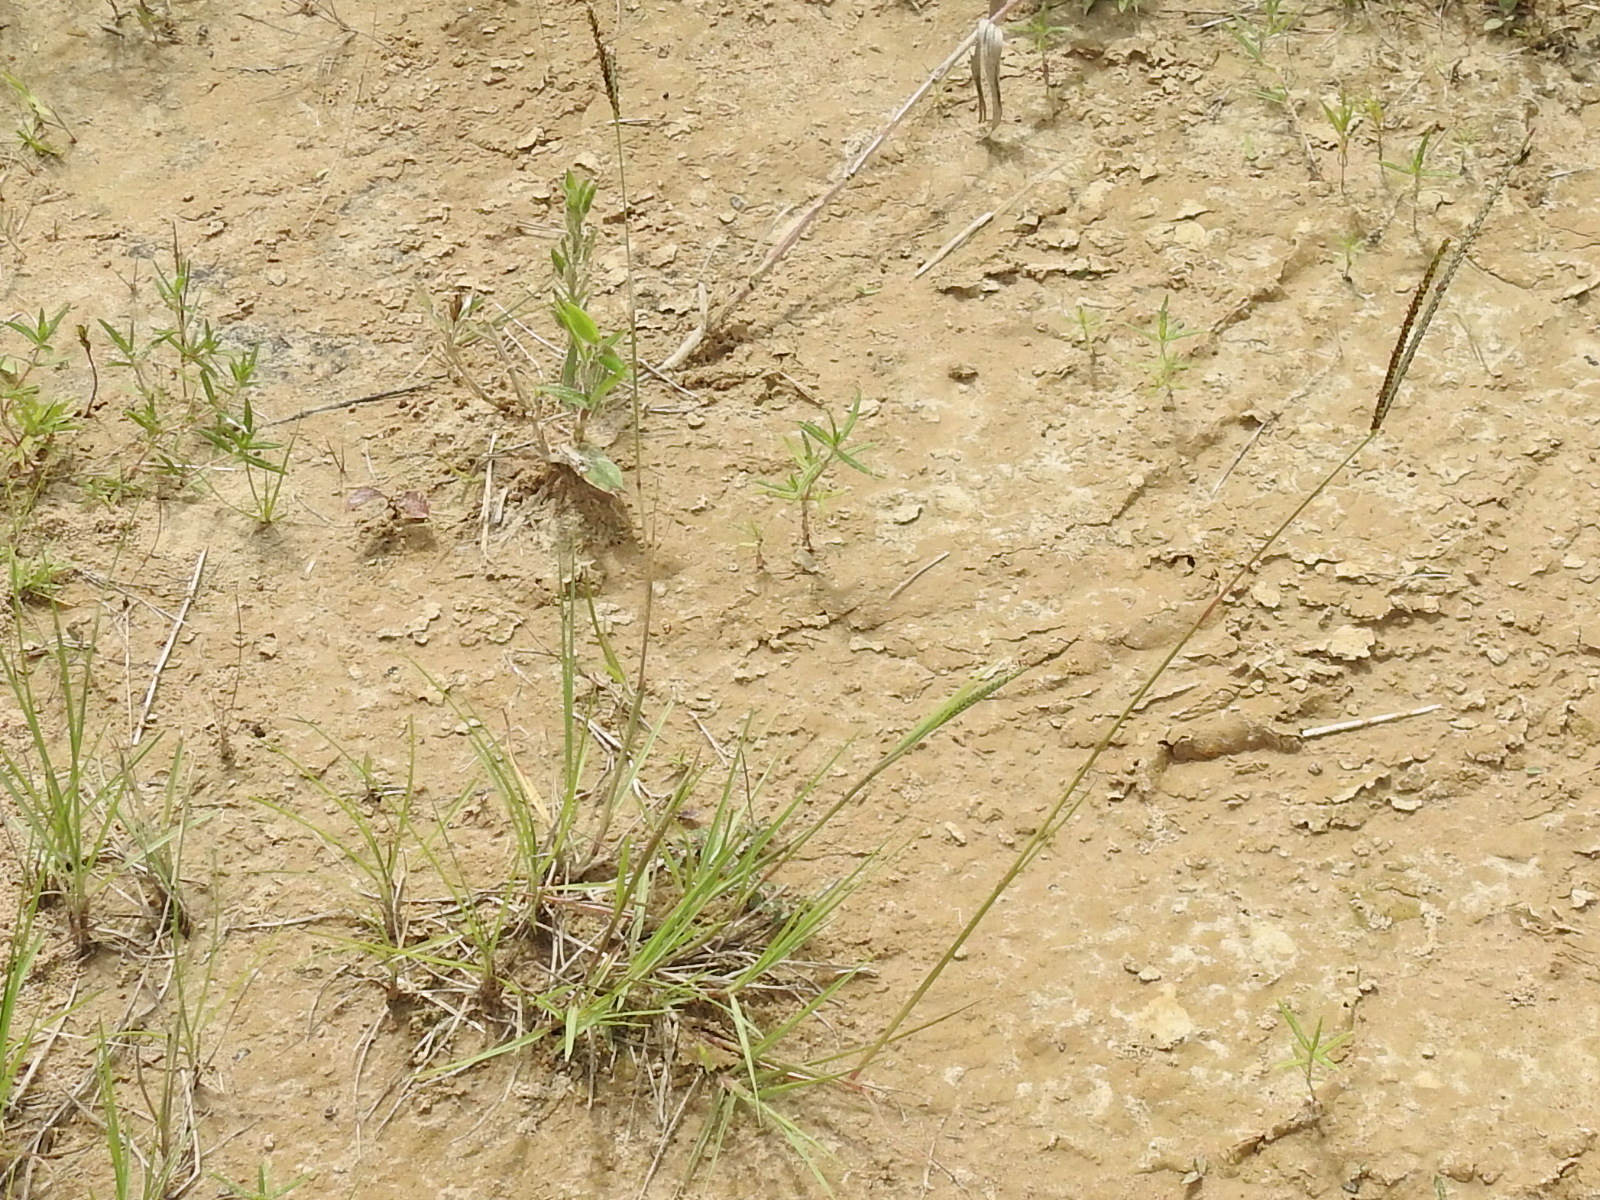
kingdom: Plantae
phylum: Tracheophyta
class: Liliopsida
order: Poales
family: Poaceae
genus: Paspalum
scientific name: Paspalum notatum
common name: Bahiagrass
